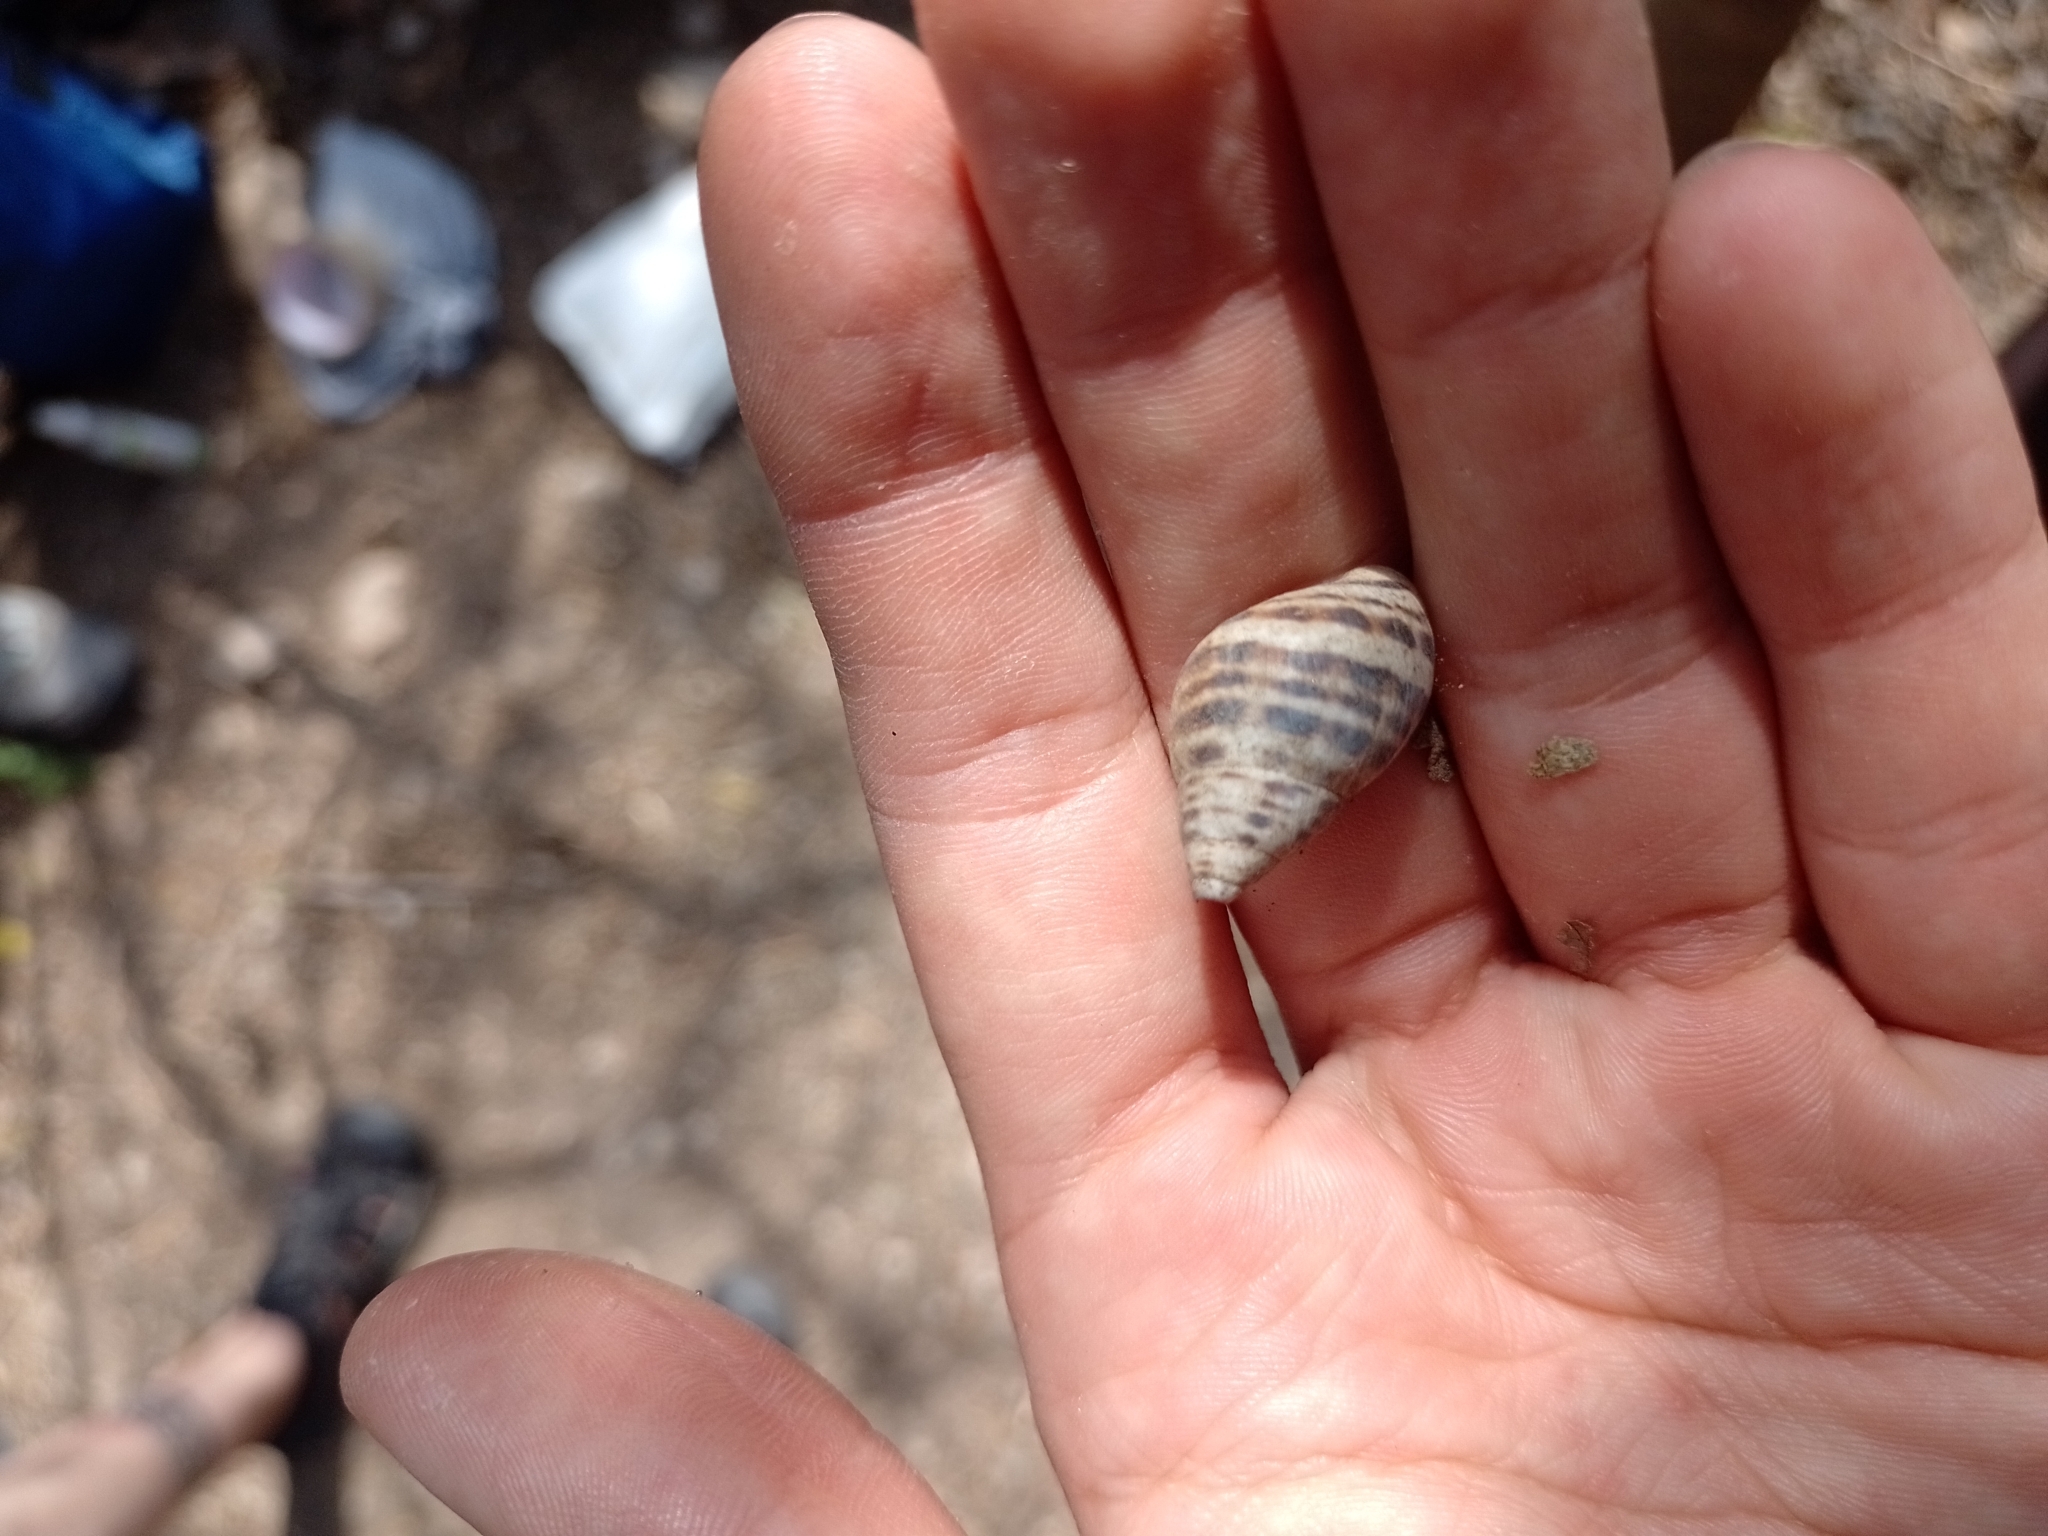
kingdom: Animalia
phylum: Mollusca
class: Gastropoda
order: Stylommatophora
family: Bulimulidae
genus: Drymaeus
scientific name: Drymaeus poecilus
